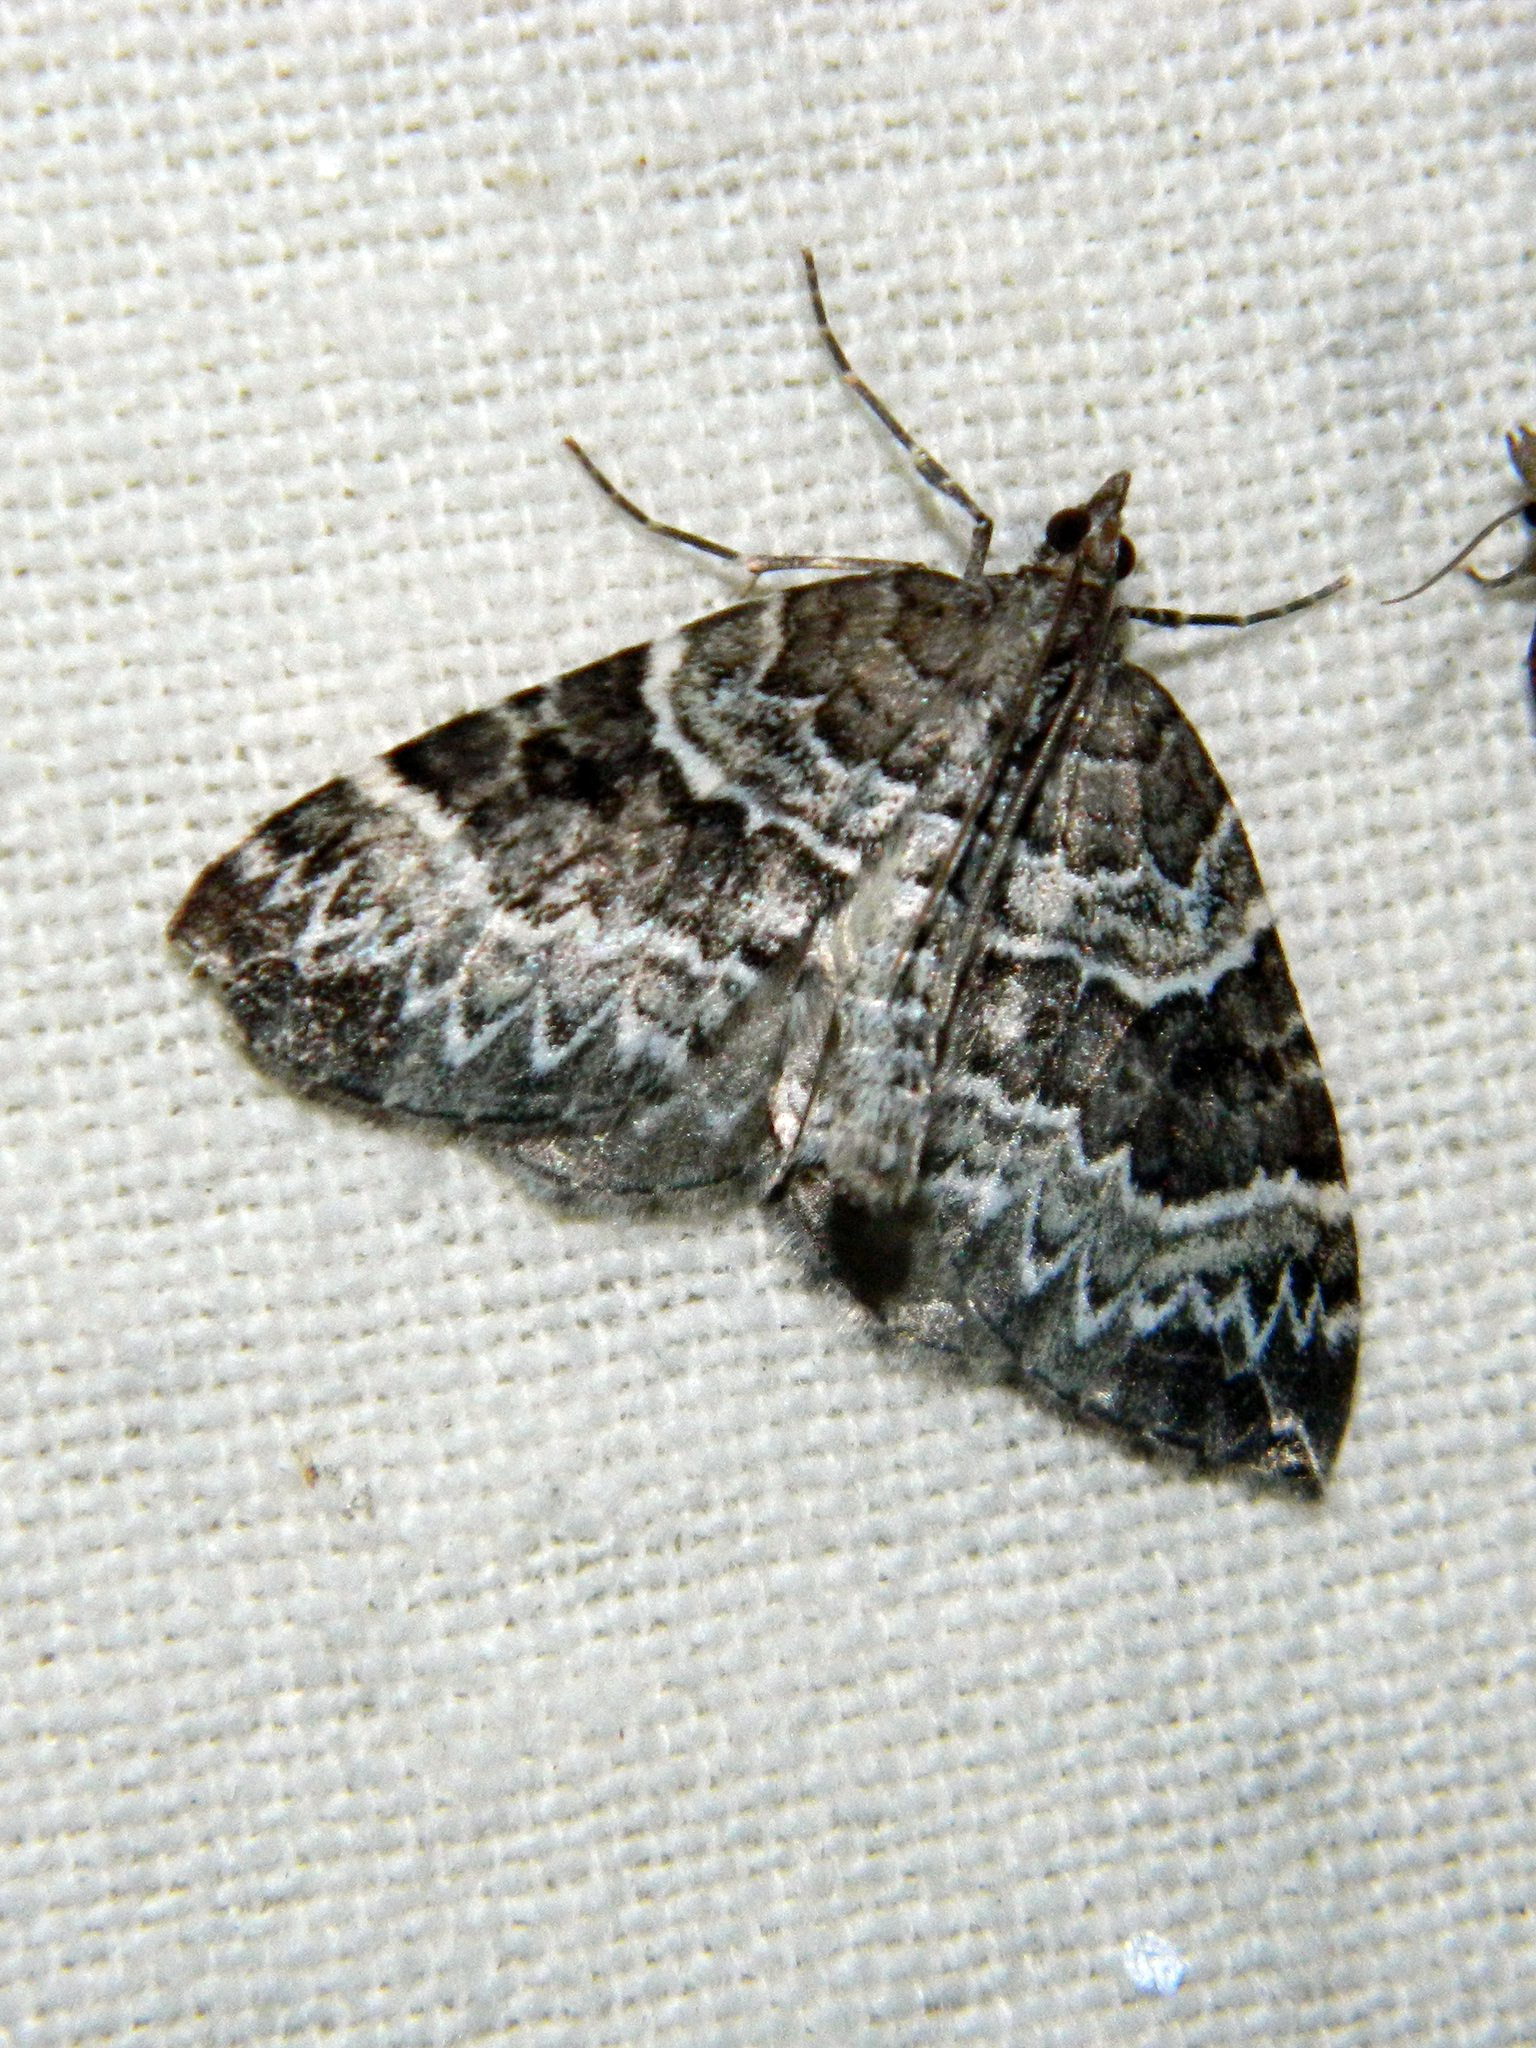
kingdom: Animalia
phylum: Arthropoda
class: Insecta
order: Lepidoptera
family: Geometridae
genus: Eulithis
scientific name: Eulithis explanata
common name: White eulithis
